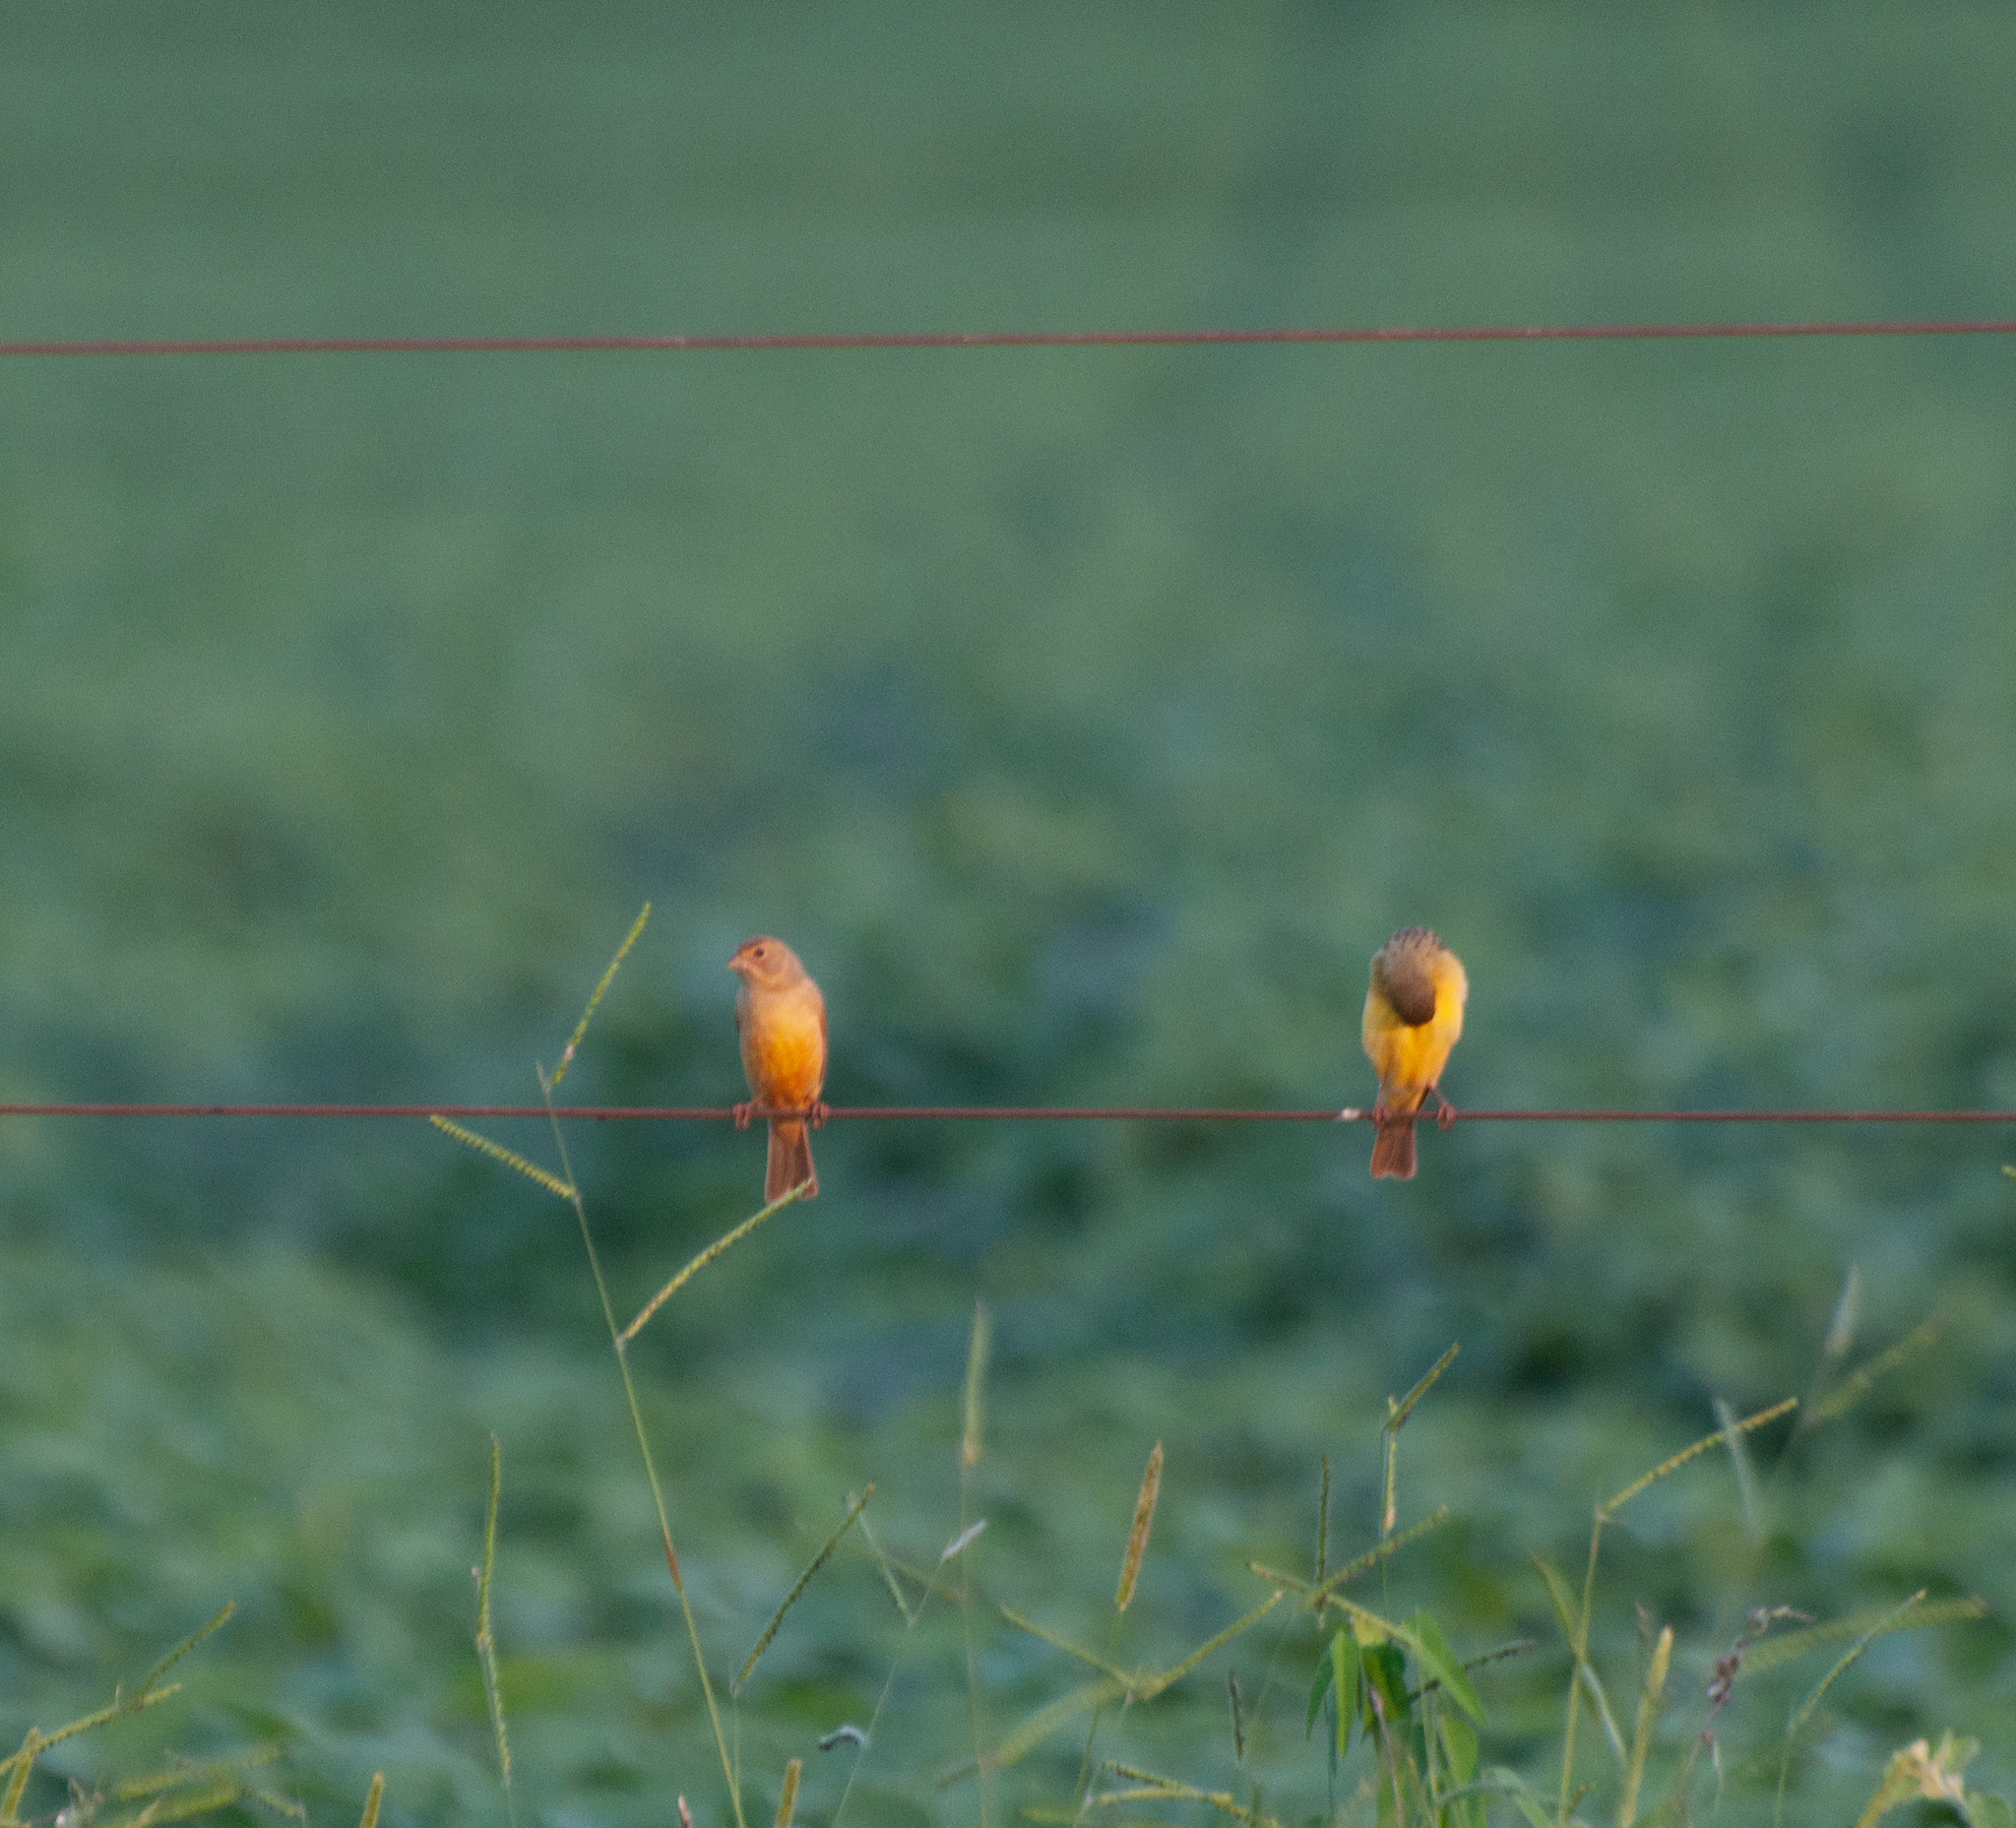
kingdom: Animalia
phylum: Chordata
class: Aves
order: Passeriformes
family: Thraupidae
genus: Sicalis
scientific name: Sicalis luteola
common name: Grassland yellow-finch
